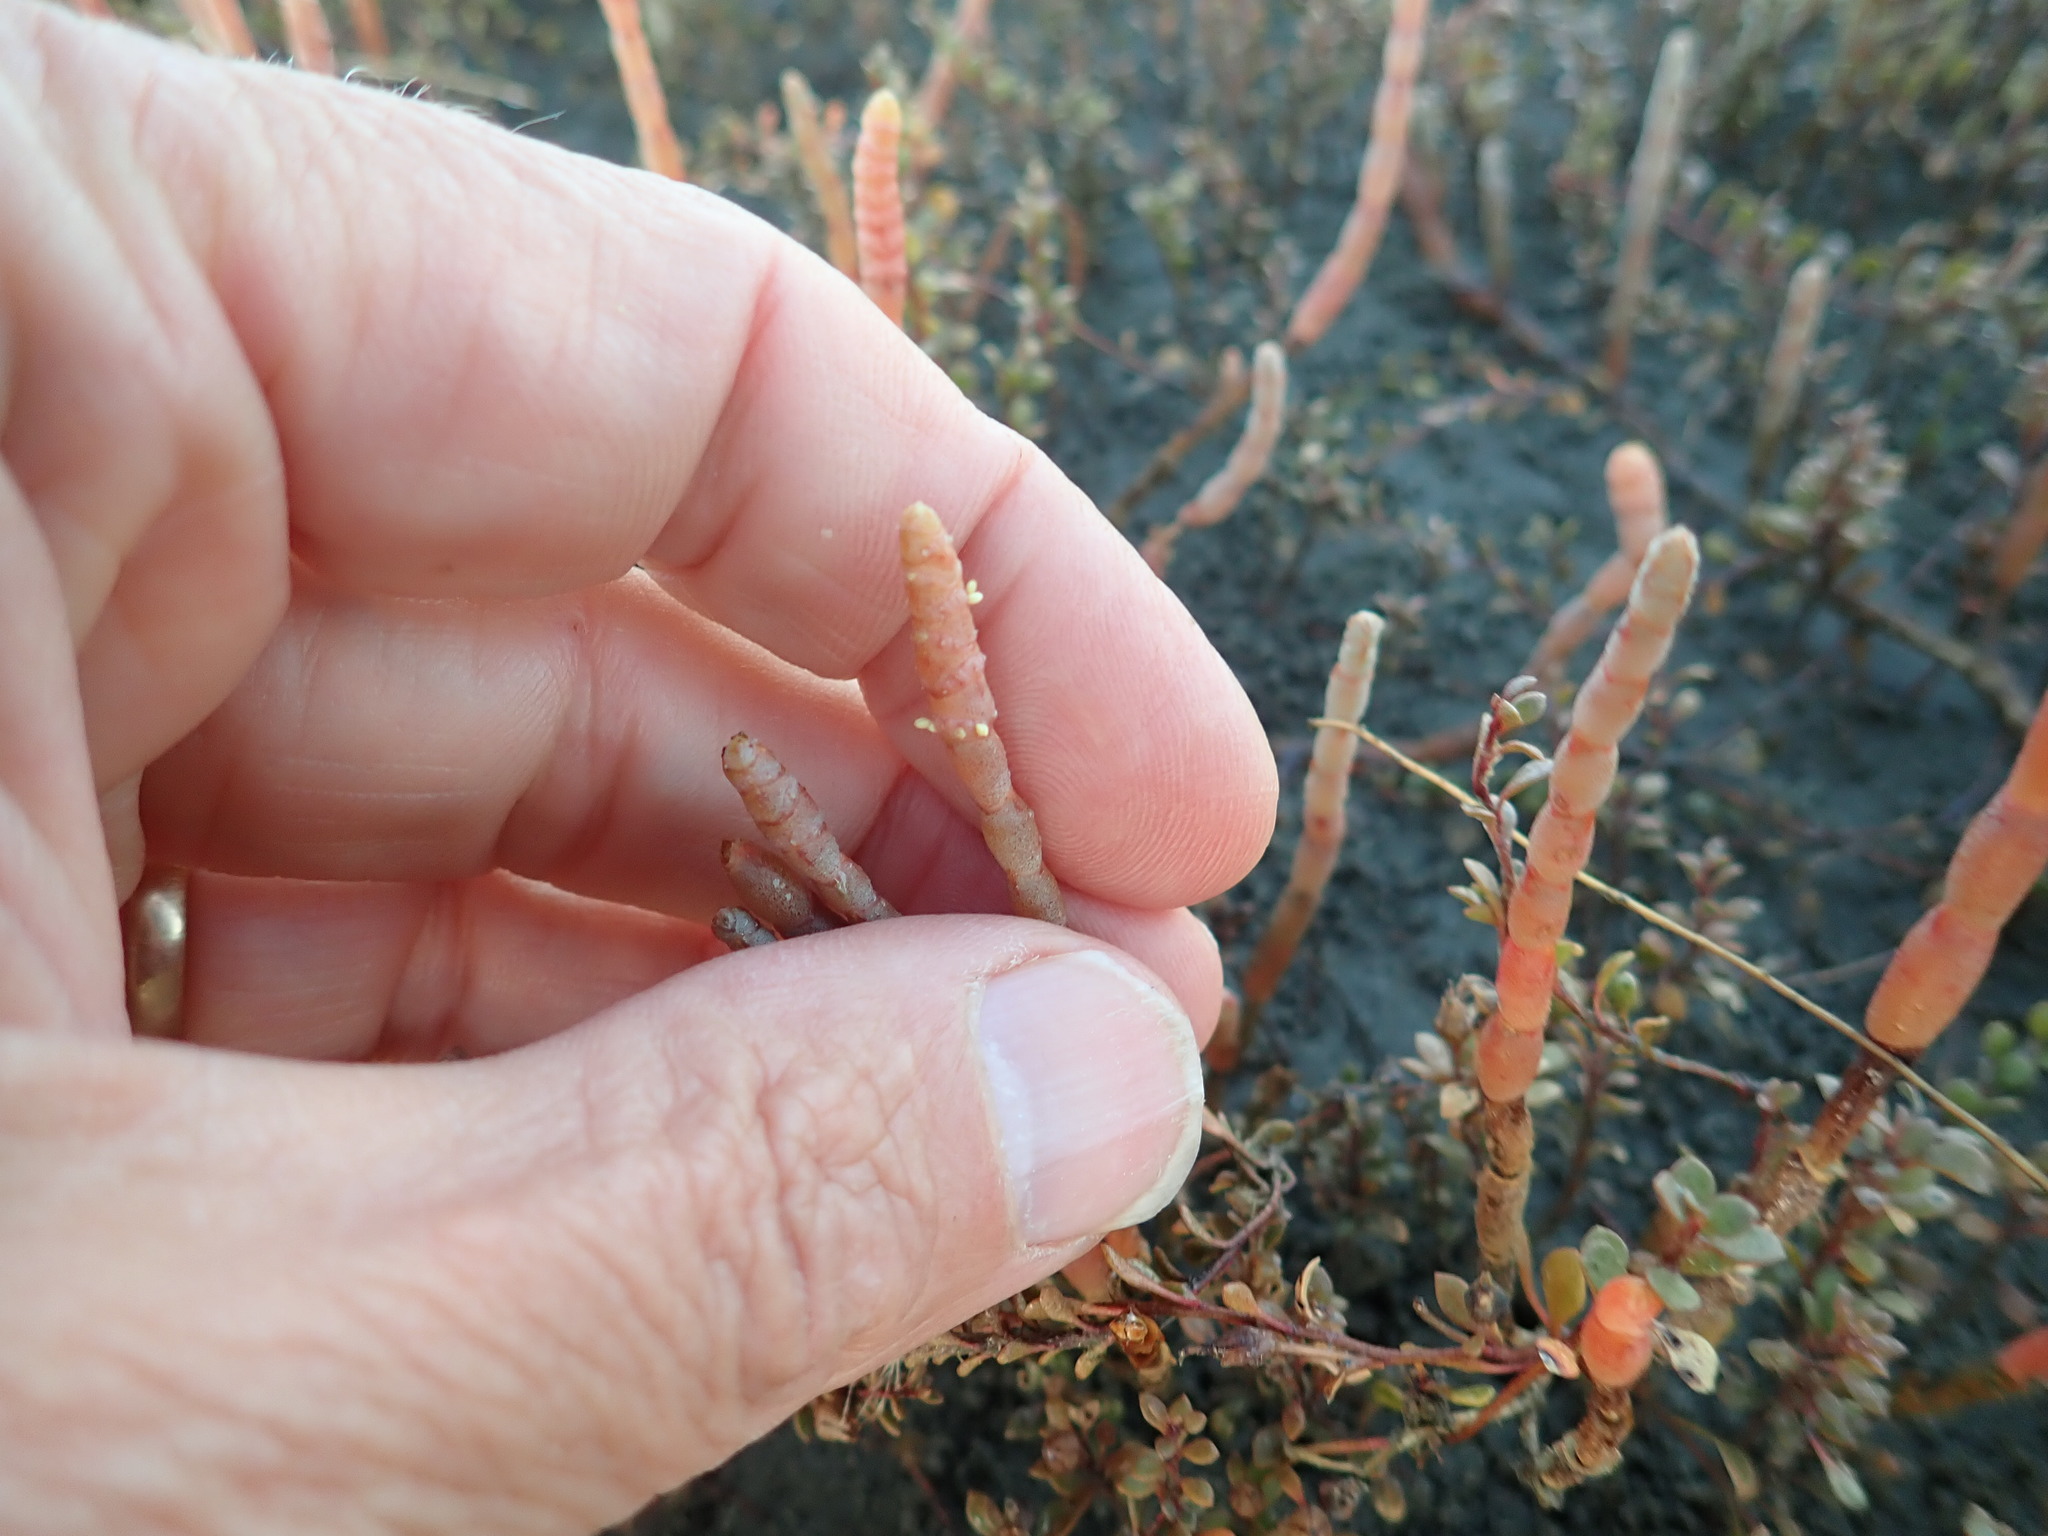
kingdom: Plantae
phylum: Tracheophyta
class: Magnoliopsida
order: Caryophyllales
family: Amaranthaceae
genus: Salicornia
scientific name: Salicornia quinqueflora
